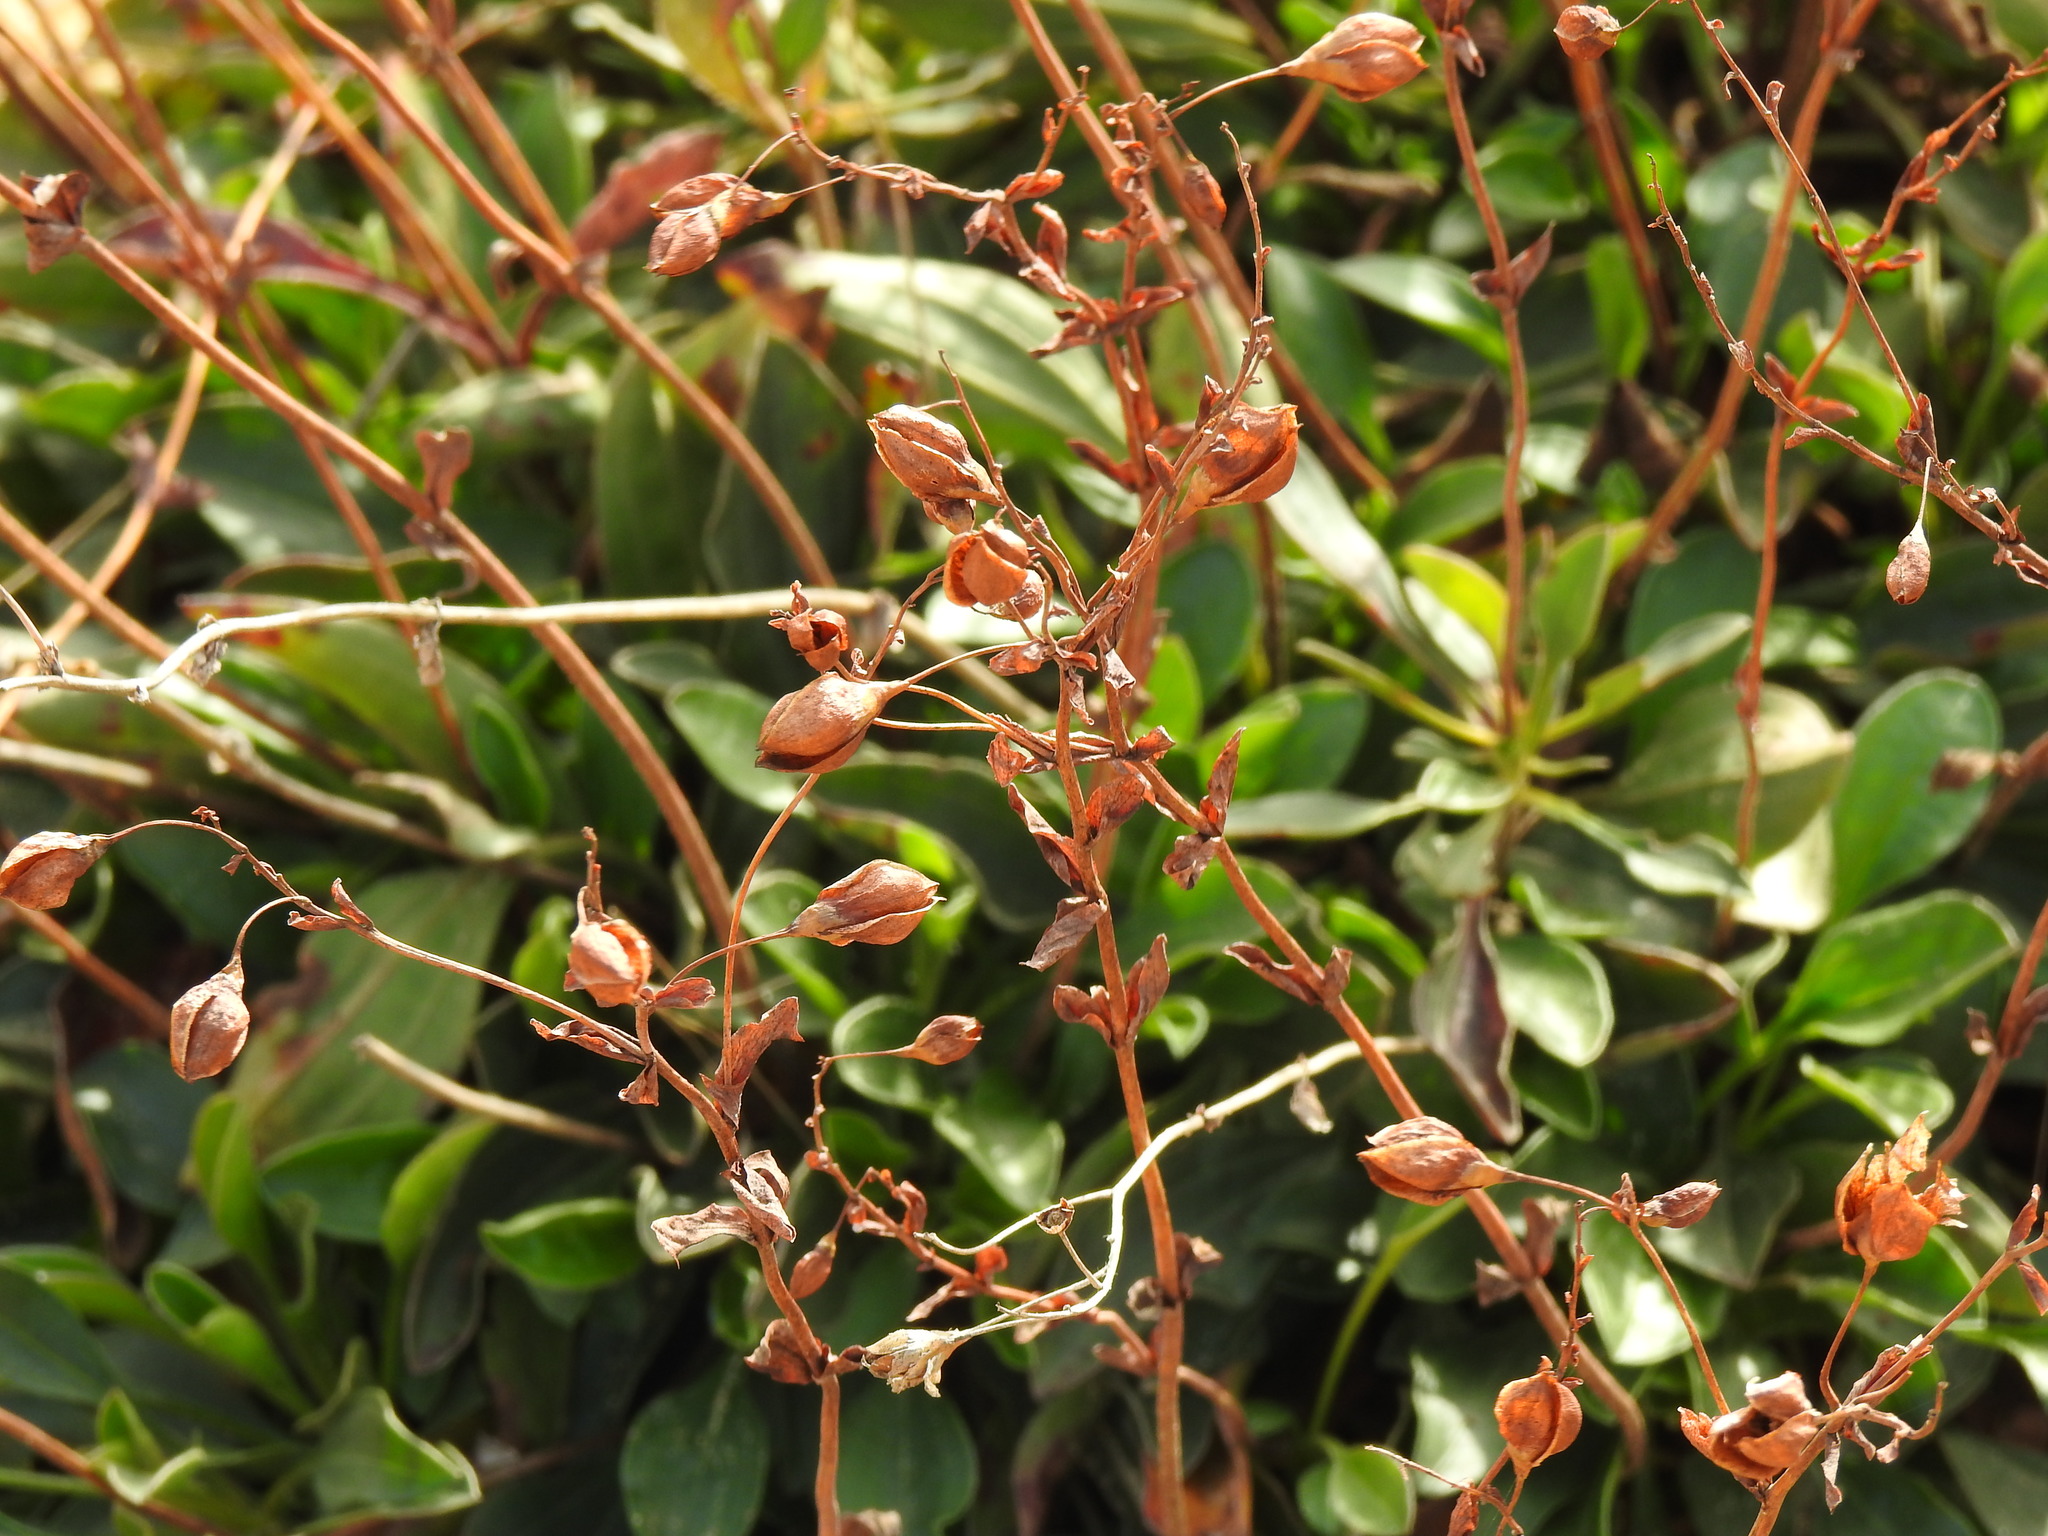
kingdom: Plantae
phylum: Tracheophyta
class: Magnoliopsida
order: Malvales
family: Cistaceae
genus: Tuberaria
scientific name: Tuberaria globulariifolia
